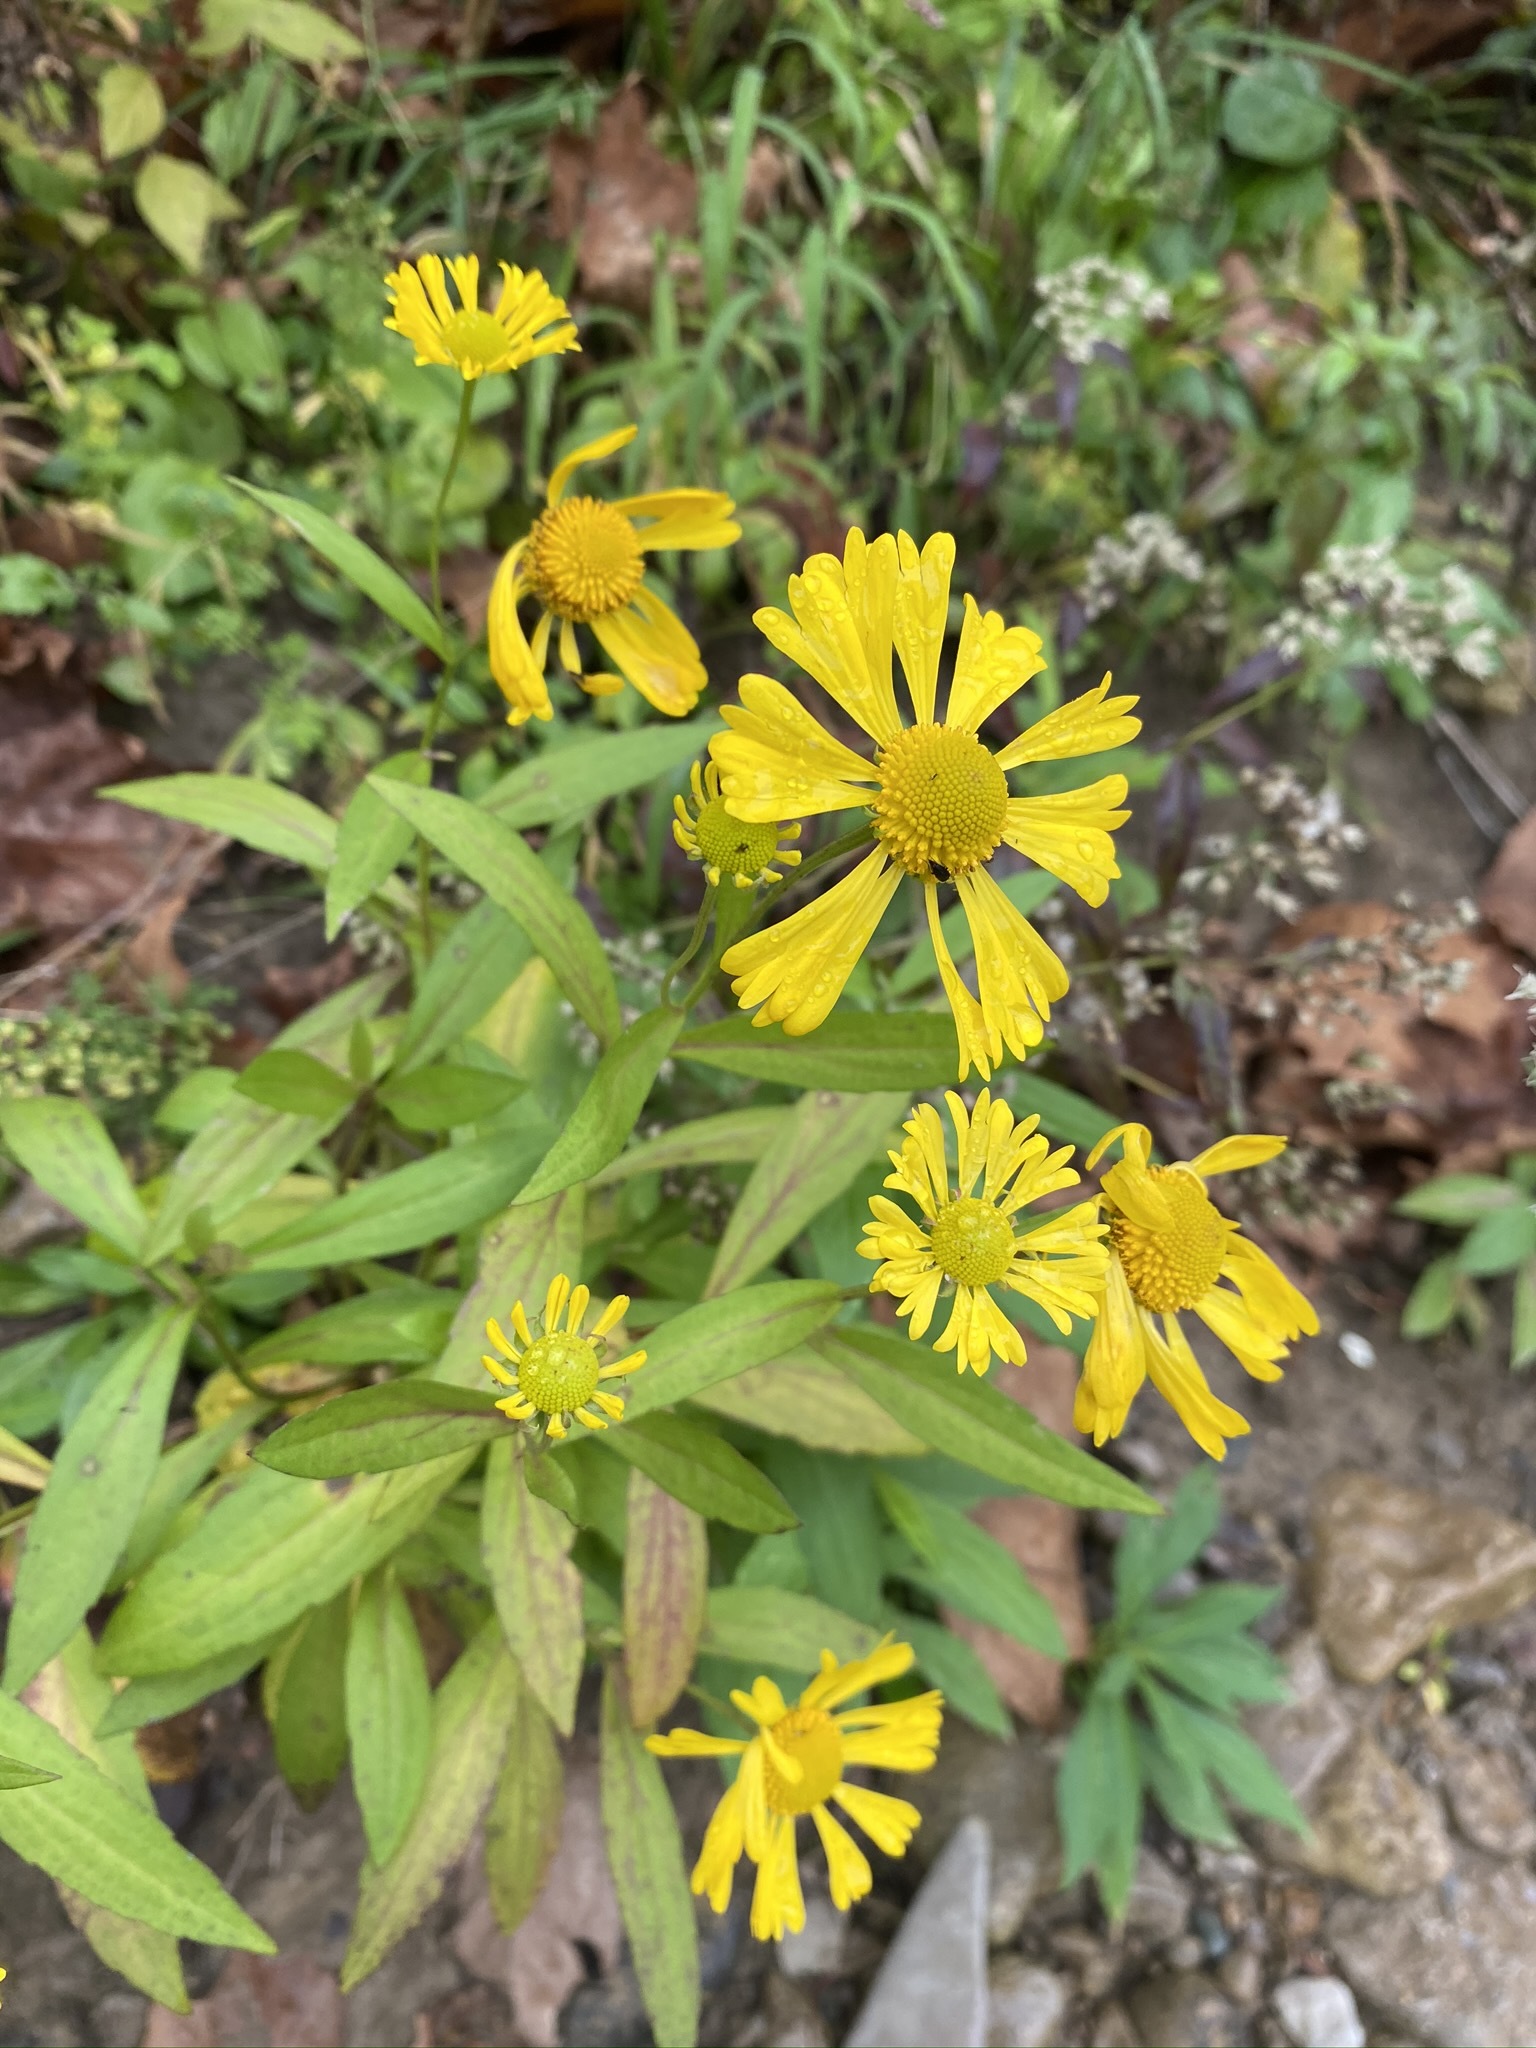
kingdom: Plantae
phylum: Tracheophyta
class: Magnoliopsida
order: Asterales
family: Asteraceae
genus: Helenium
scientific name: Helenium autumnale
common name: Sneezeweed
